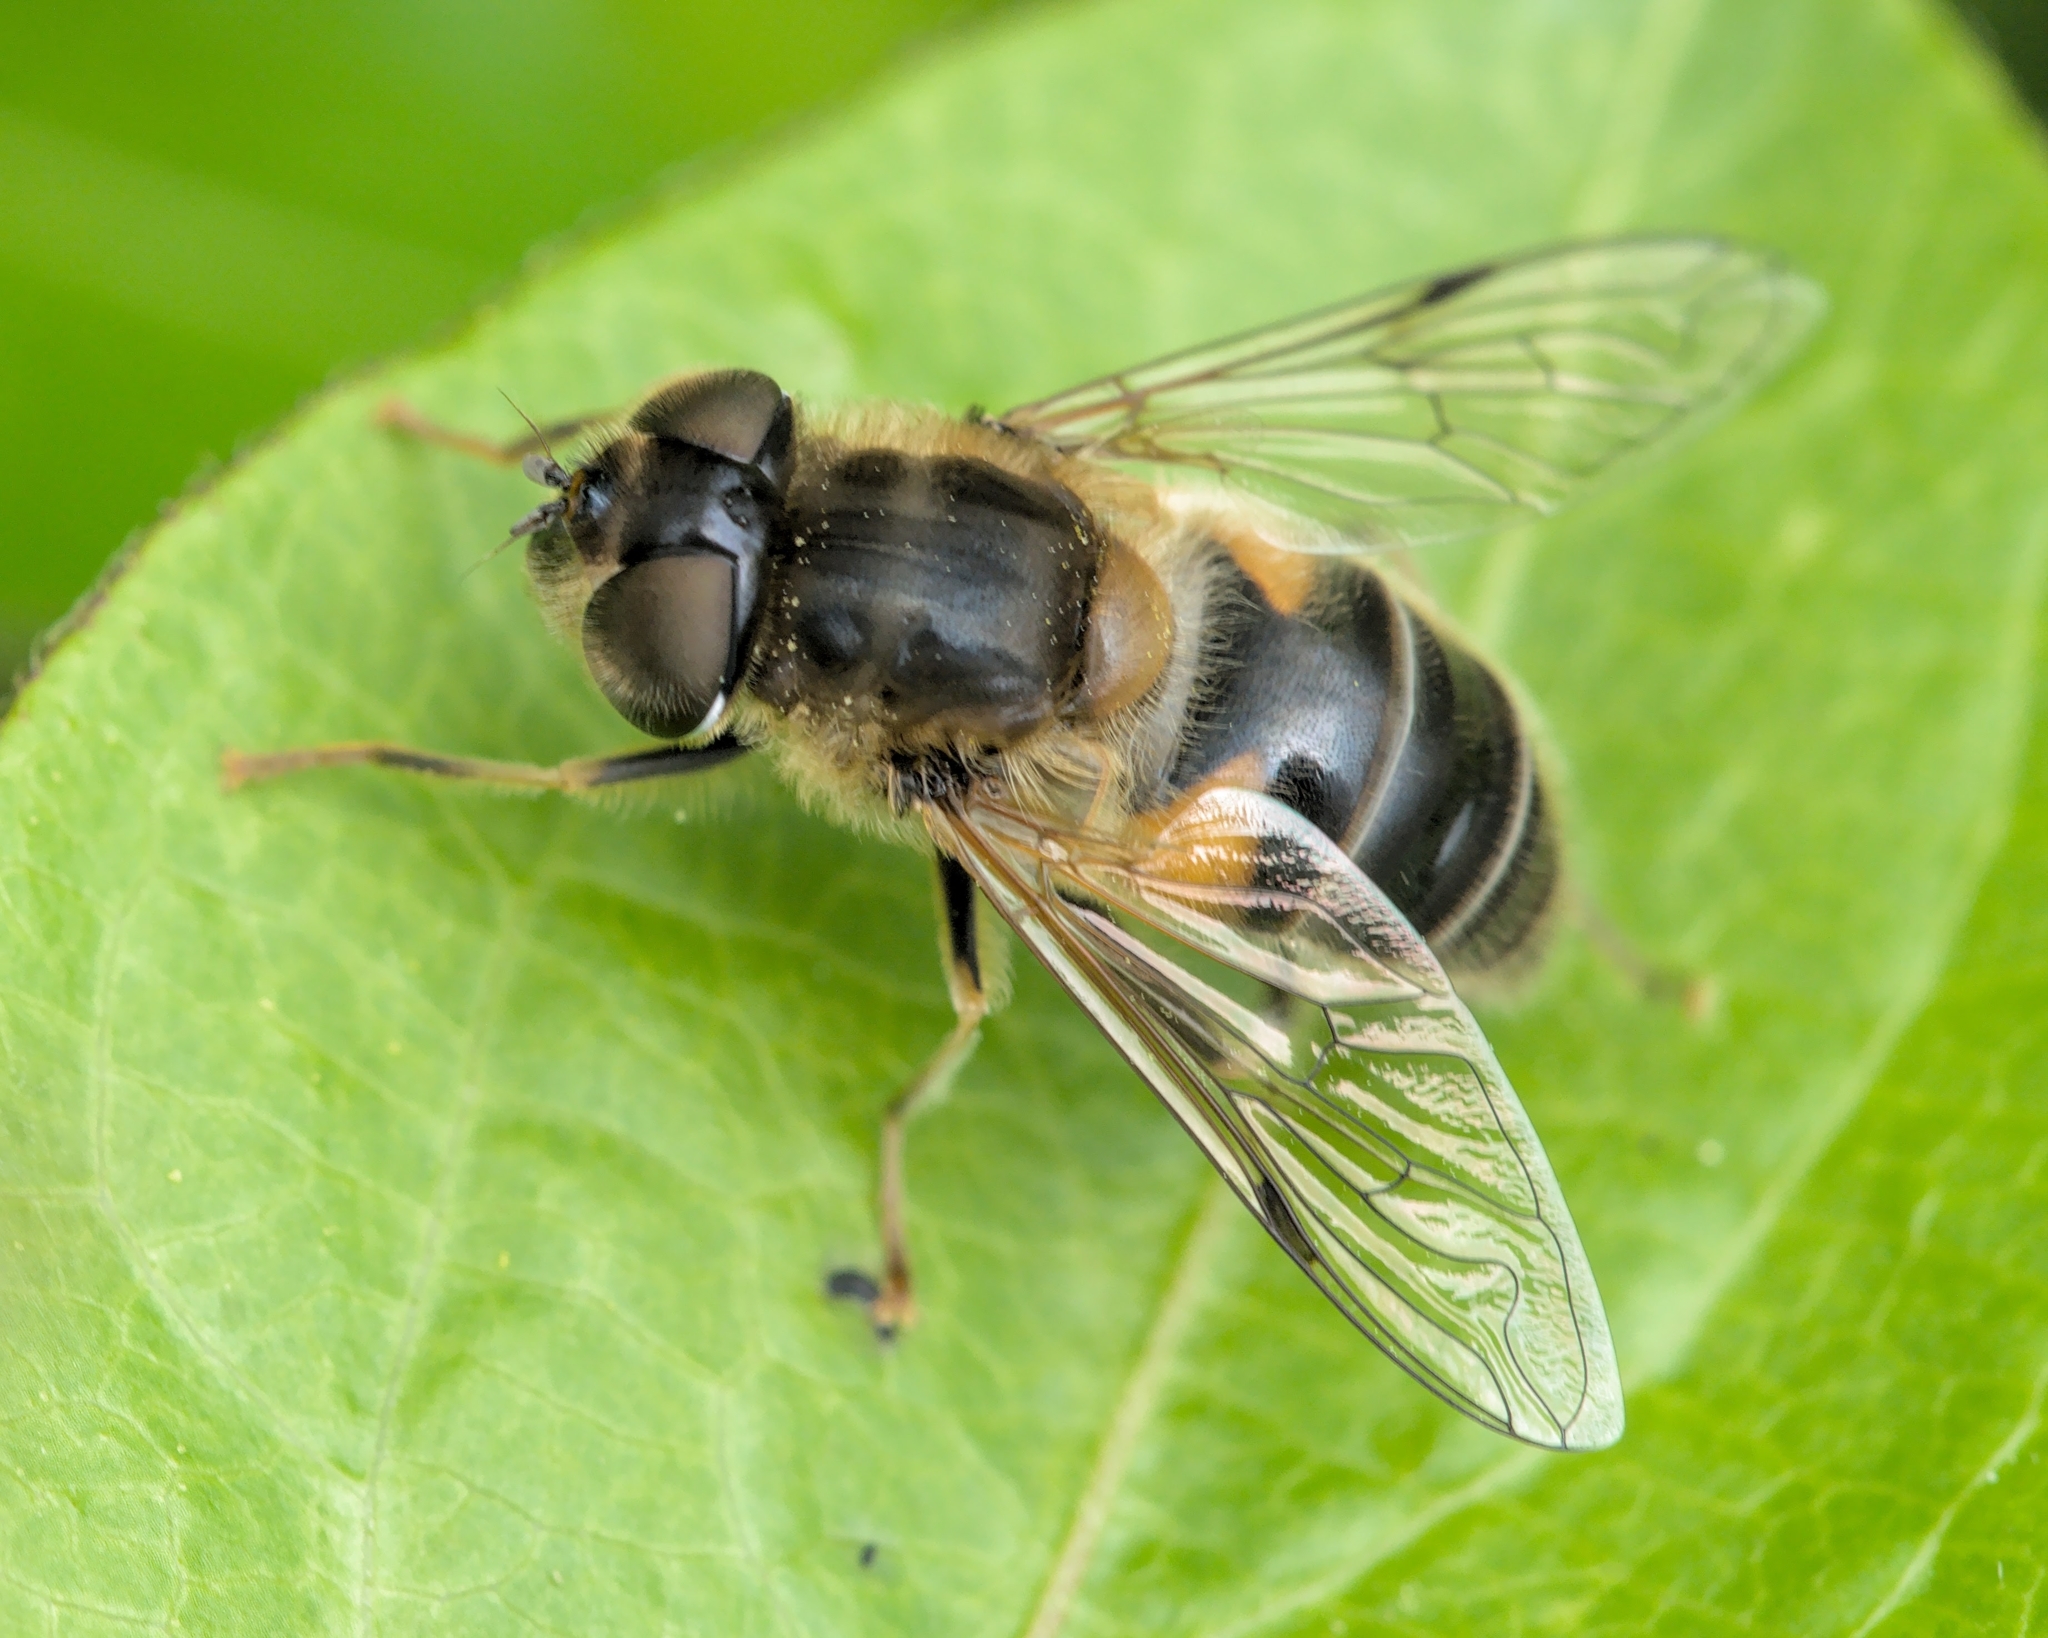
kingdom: Animalia
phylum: Arthropoda
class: Insecta
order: Diptera
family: Syrphidae
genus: Eristalis
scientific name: Eristalis pertinax
